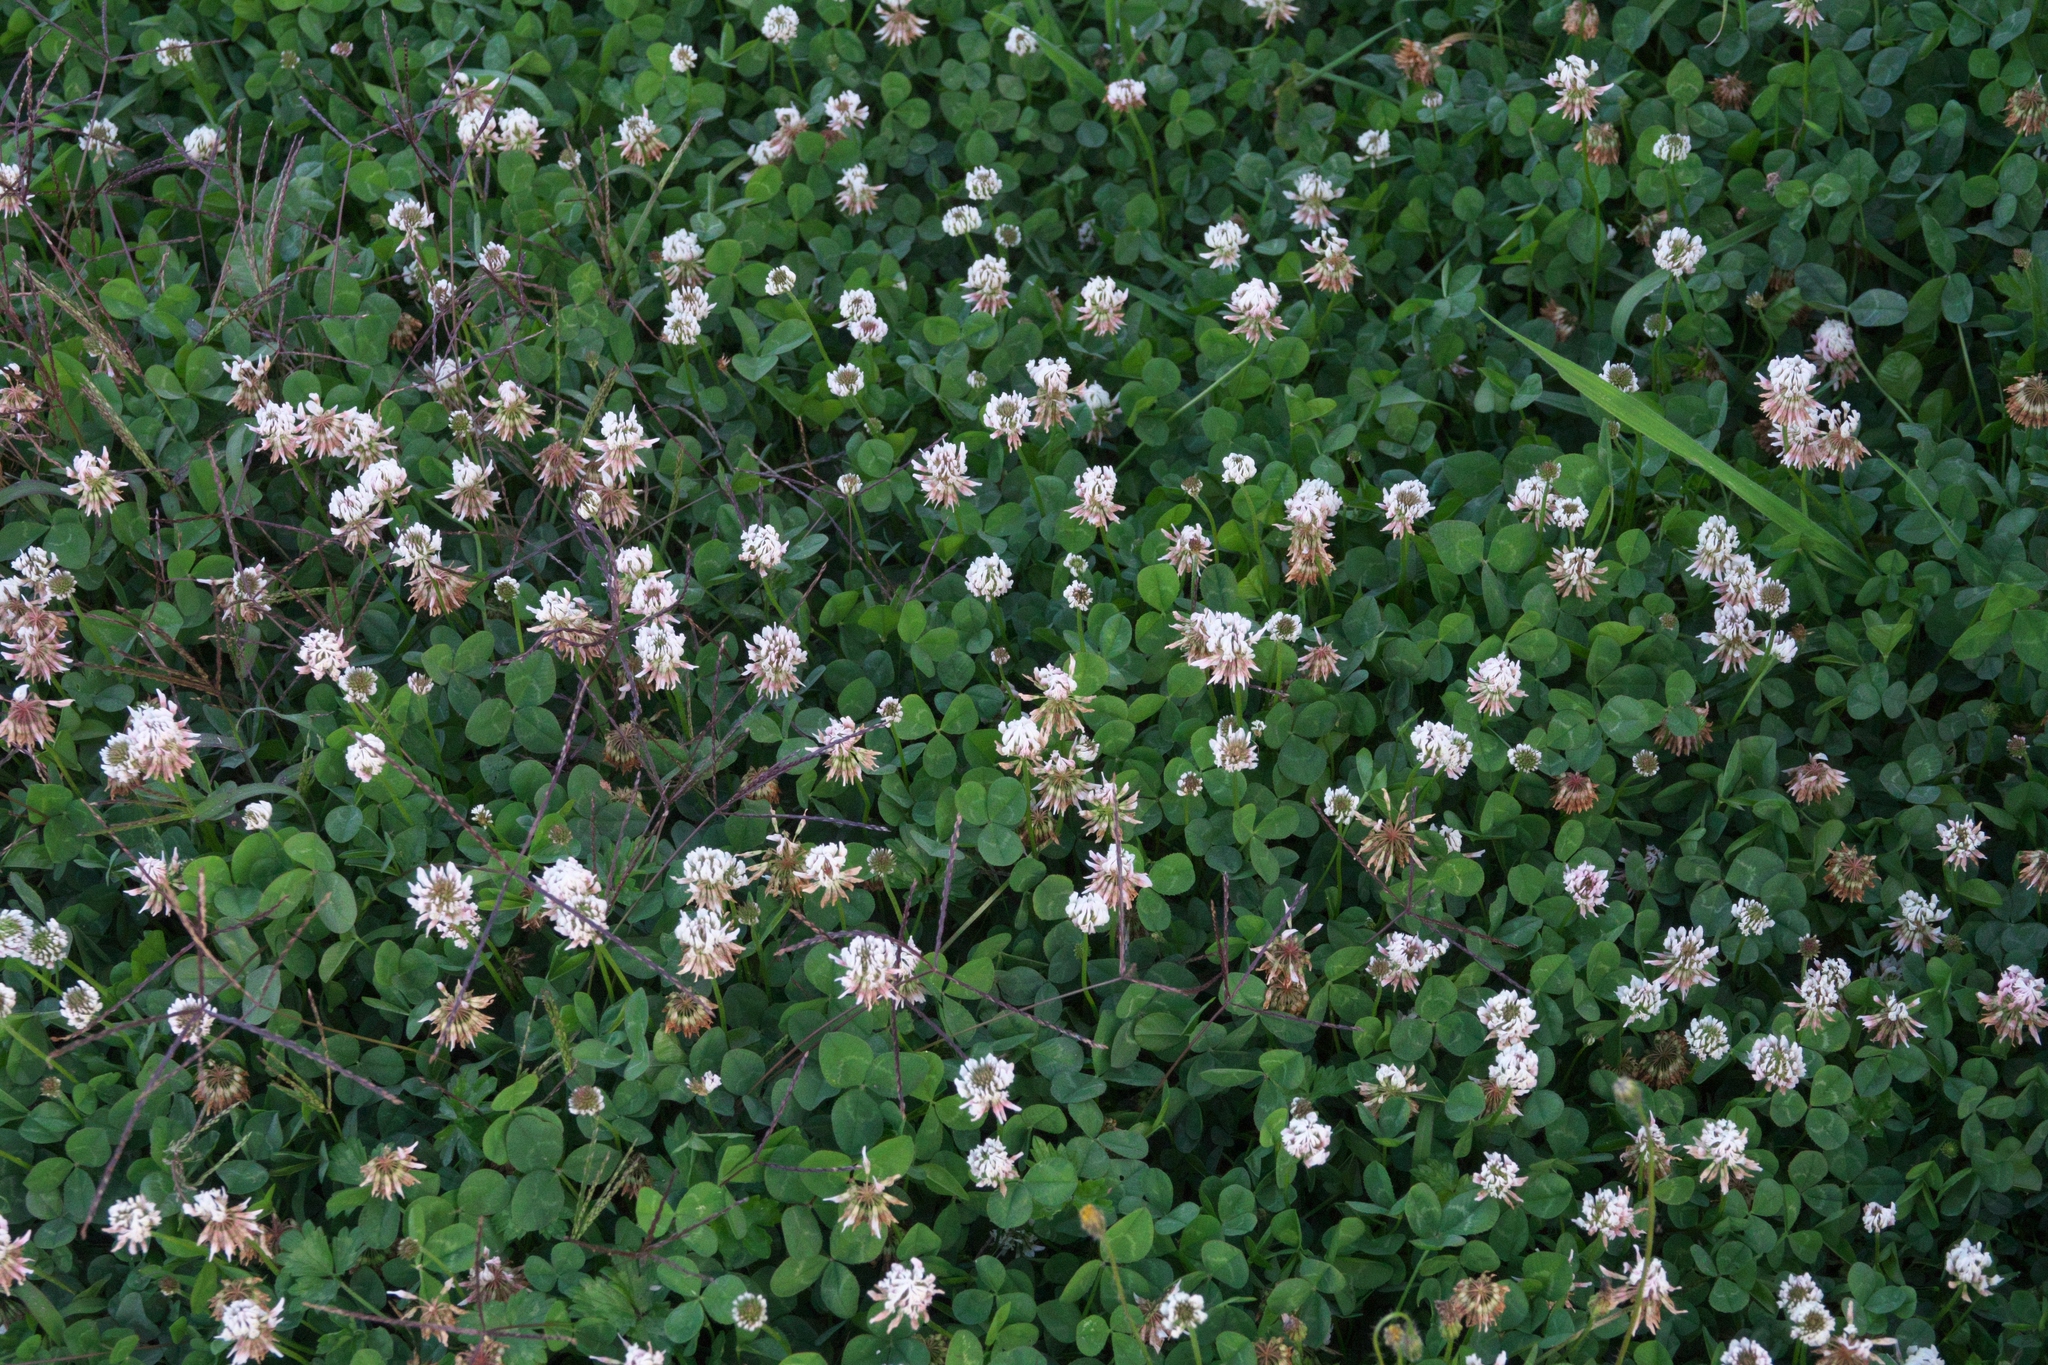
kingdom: Plantae
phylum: Tracheophyta
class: Magnoliopsida
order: Fabales
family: Fabaceae
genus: Trifolium
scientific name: Trifolium repens
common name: White clover
